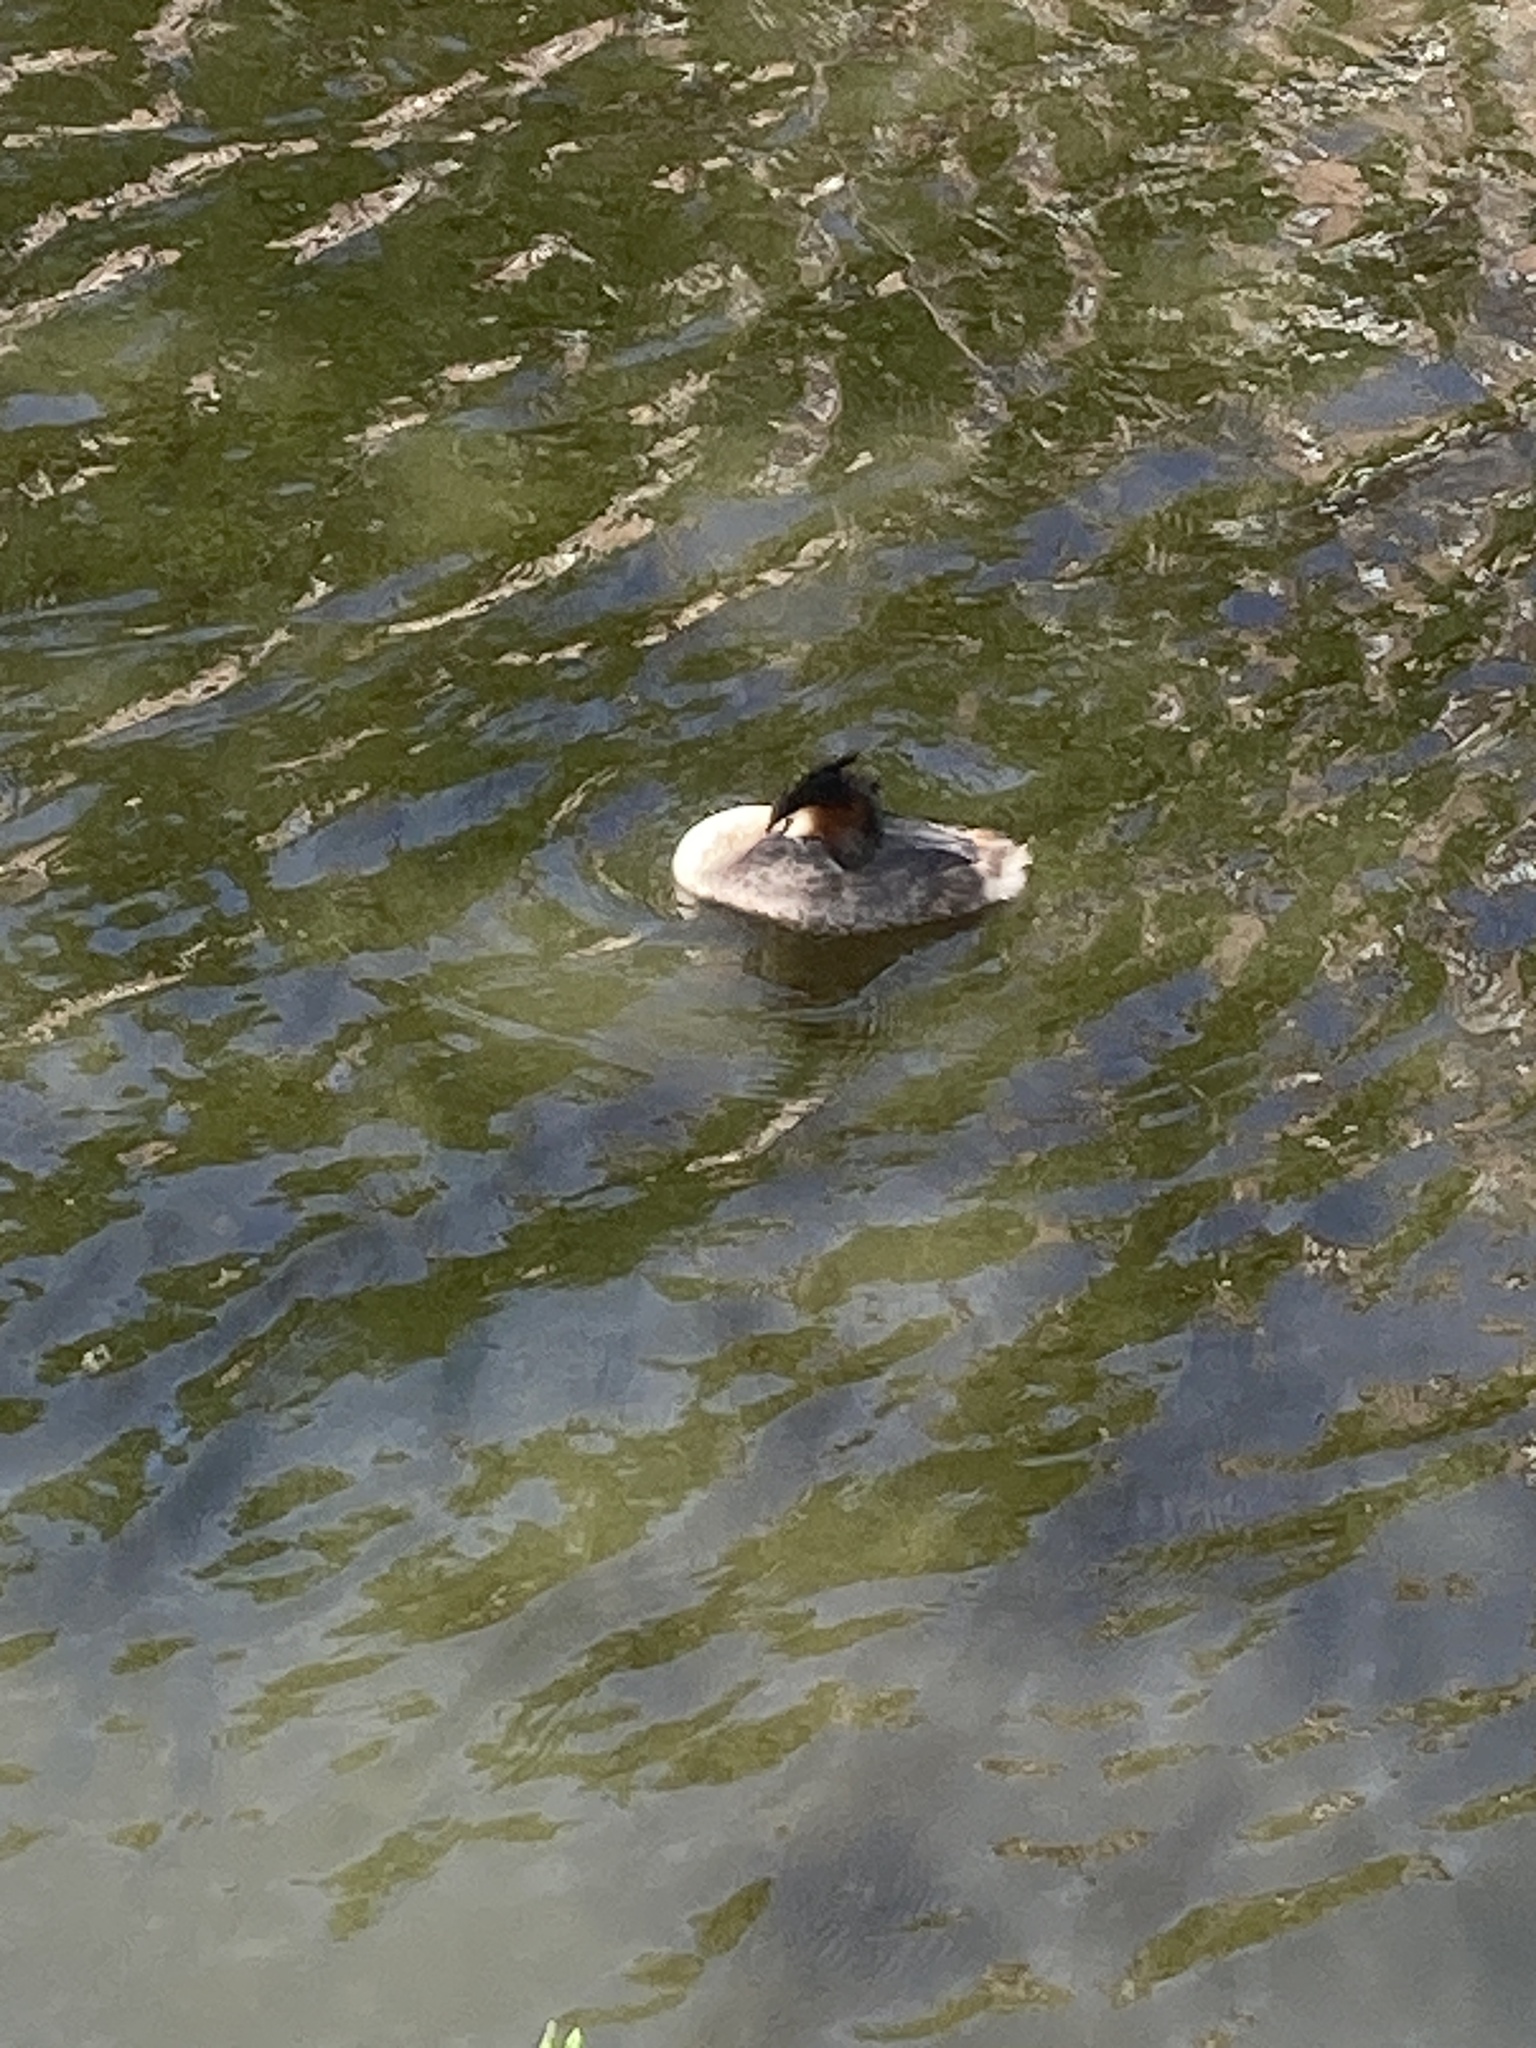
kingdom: Animalia
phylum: Chordata
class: Aves
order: Podicipediformes
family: Podicipedidae
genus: Podiceps
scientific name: Podiceps cristatus
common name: Great crested grebe
